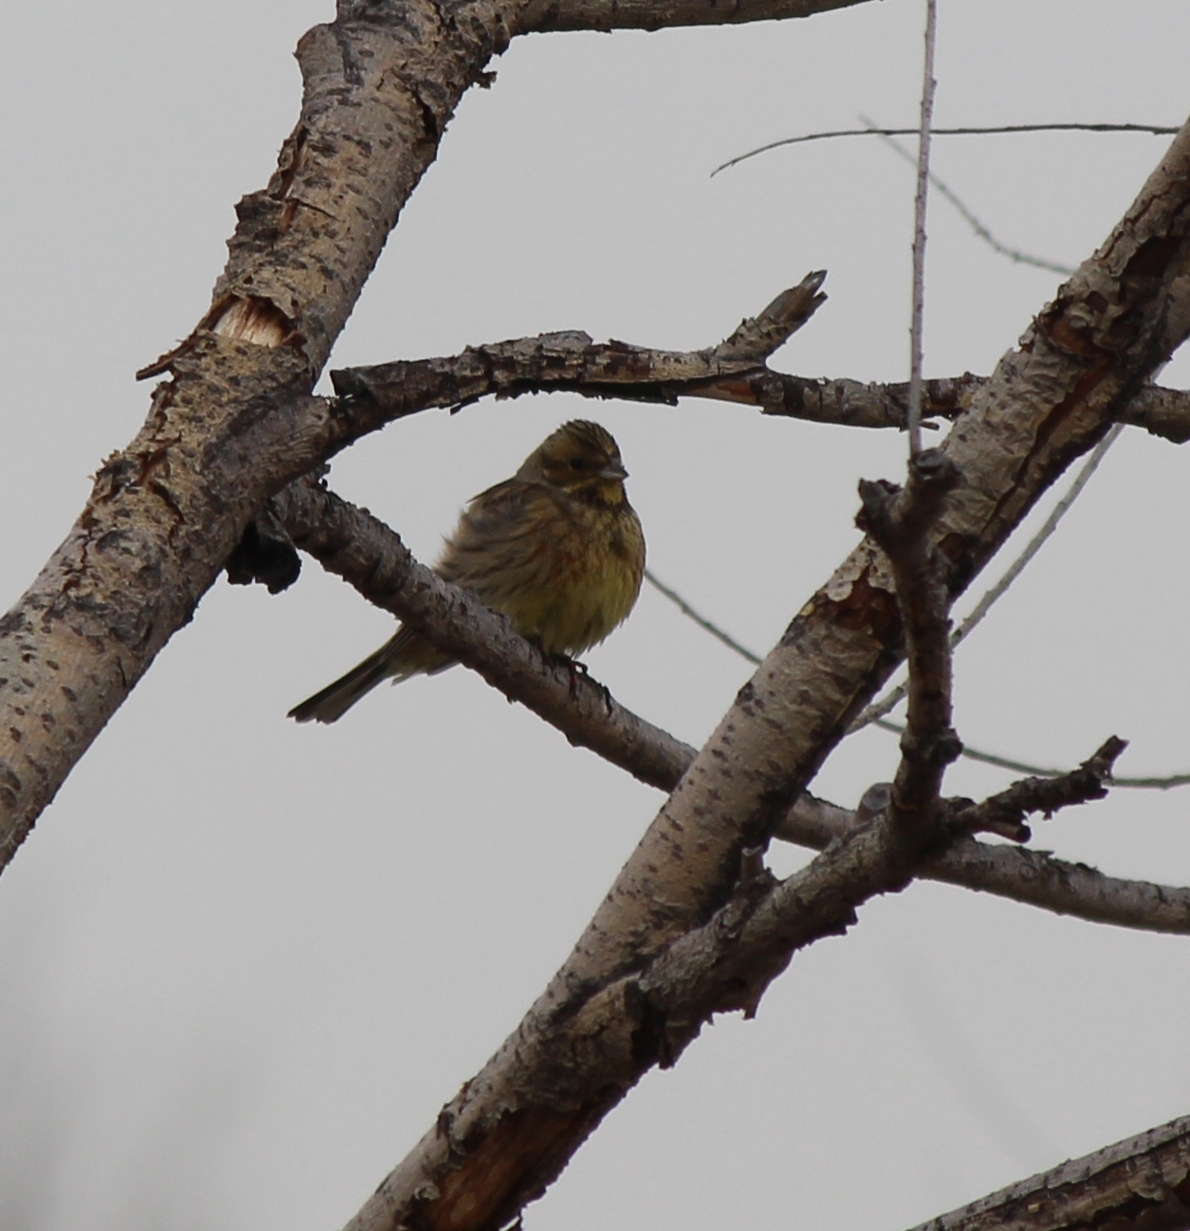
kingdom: Animalia
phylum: Chordata
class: Aves
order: Passeriformes
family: Emberizidae
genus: Emberiza
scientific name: Emberiza citrinella
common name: Yellowhammer
